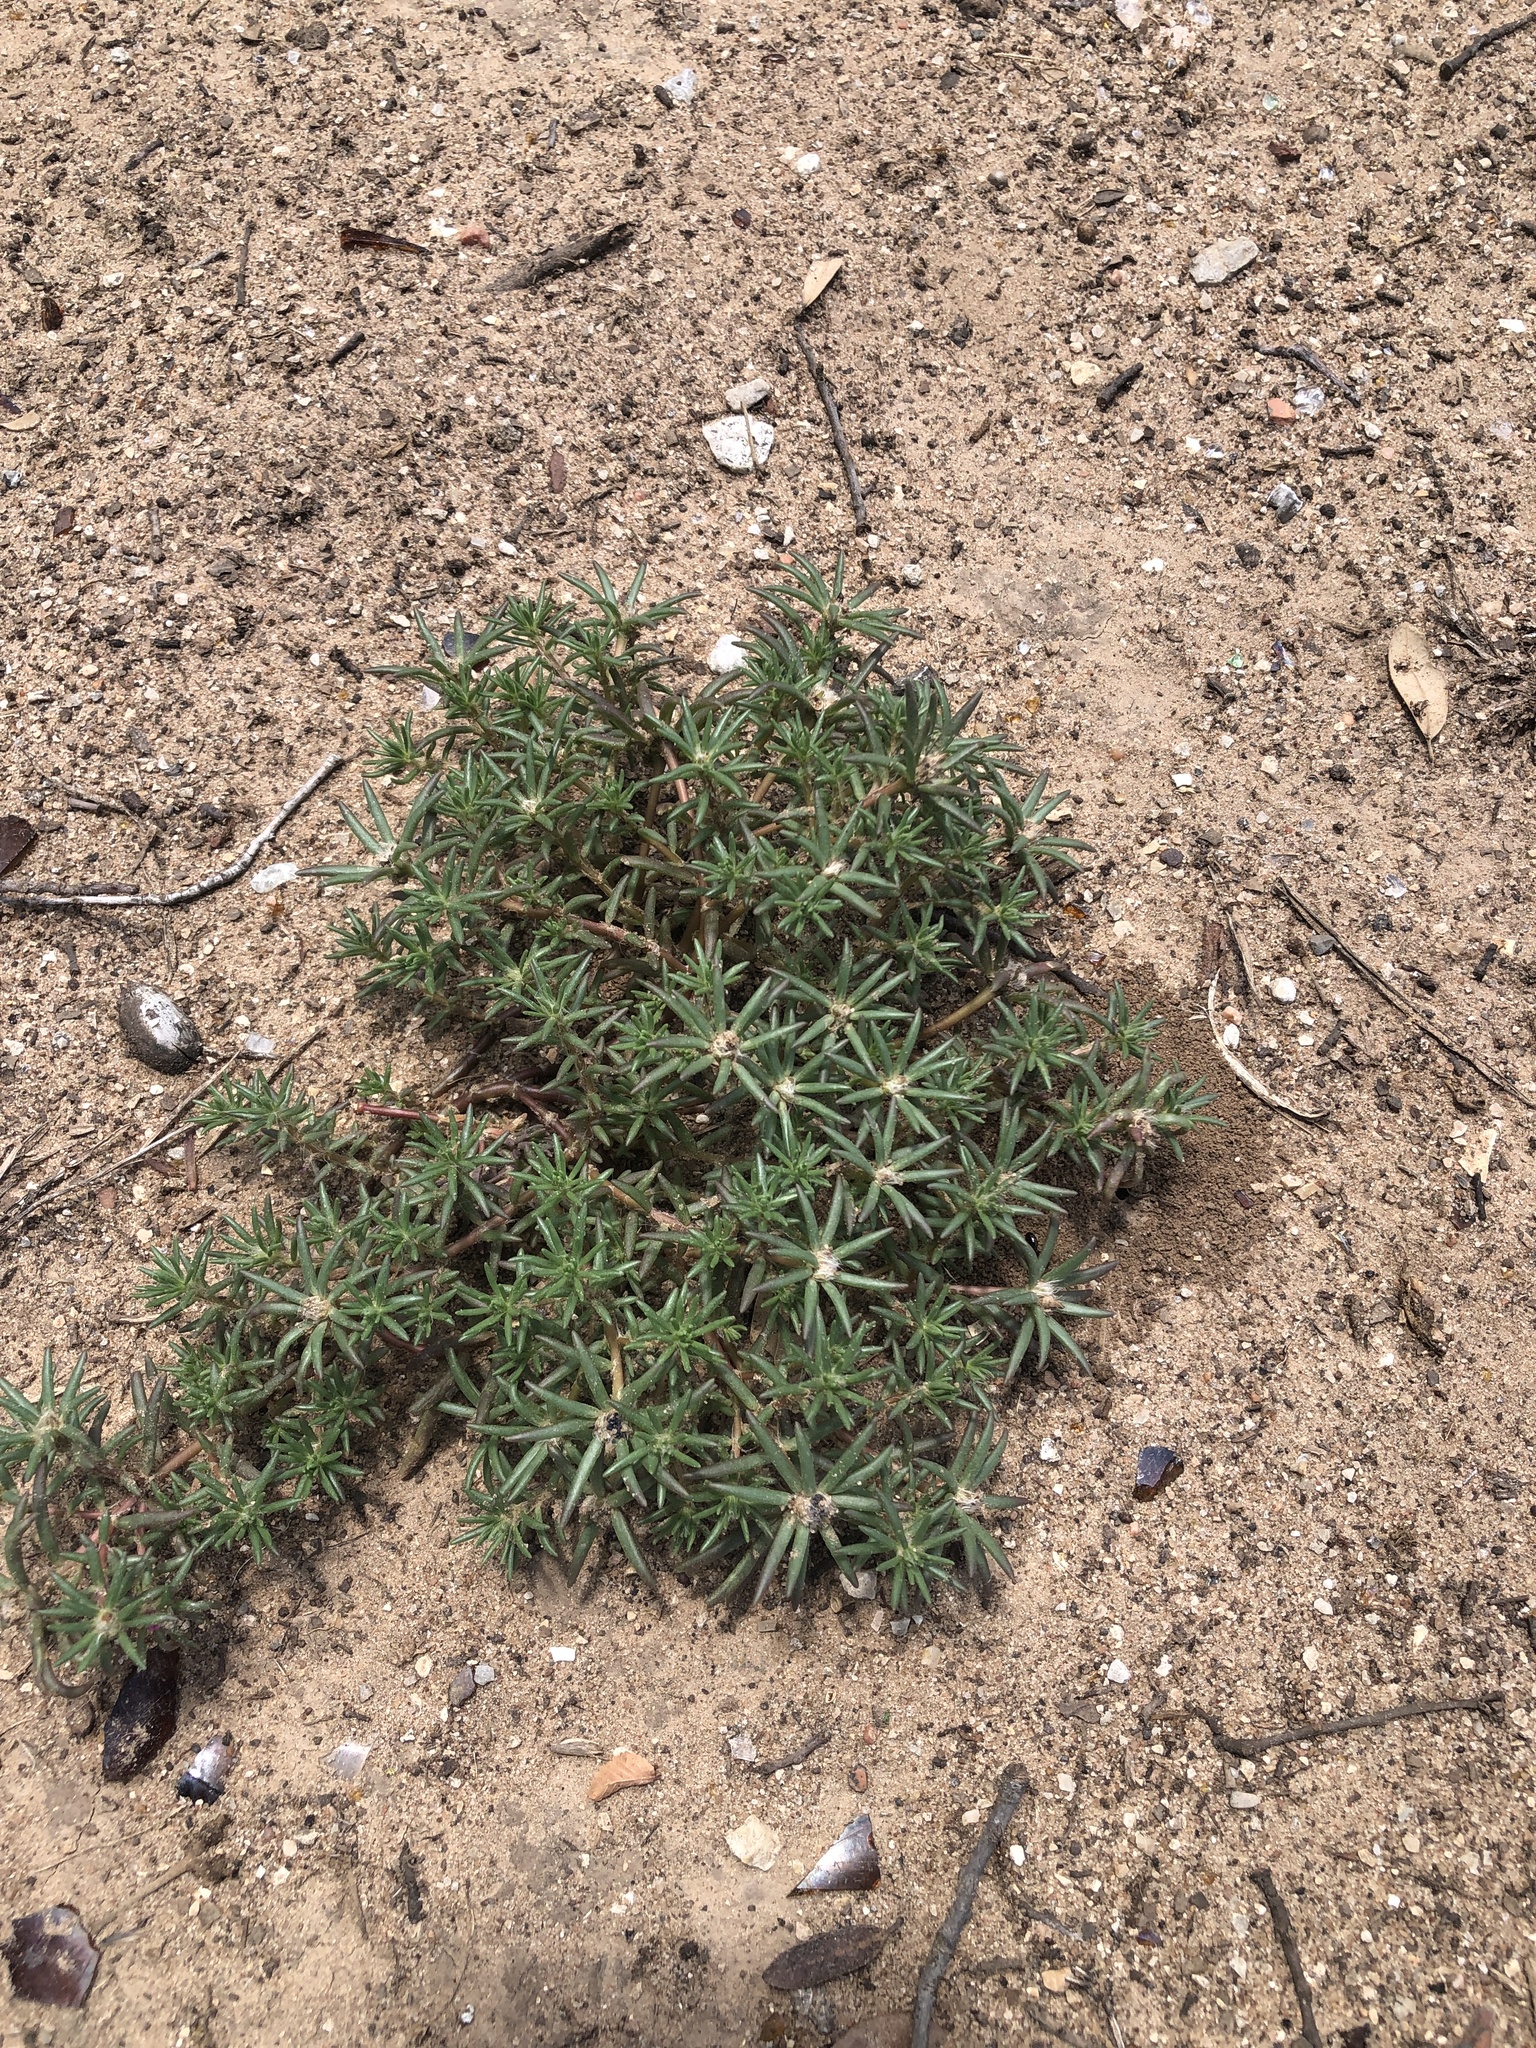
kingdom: Plantae
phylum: Tracheophyta
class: Magnoliopsida
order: Caryophyllales
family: Portulacaceae
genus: Portulaca
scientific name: Portulaca pilosa
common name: Kiss me quick
